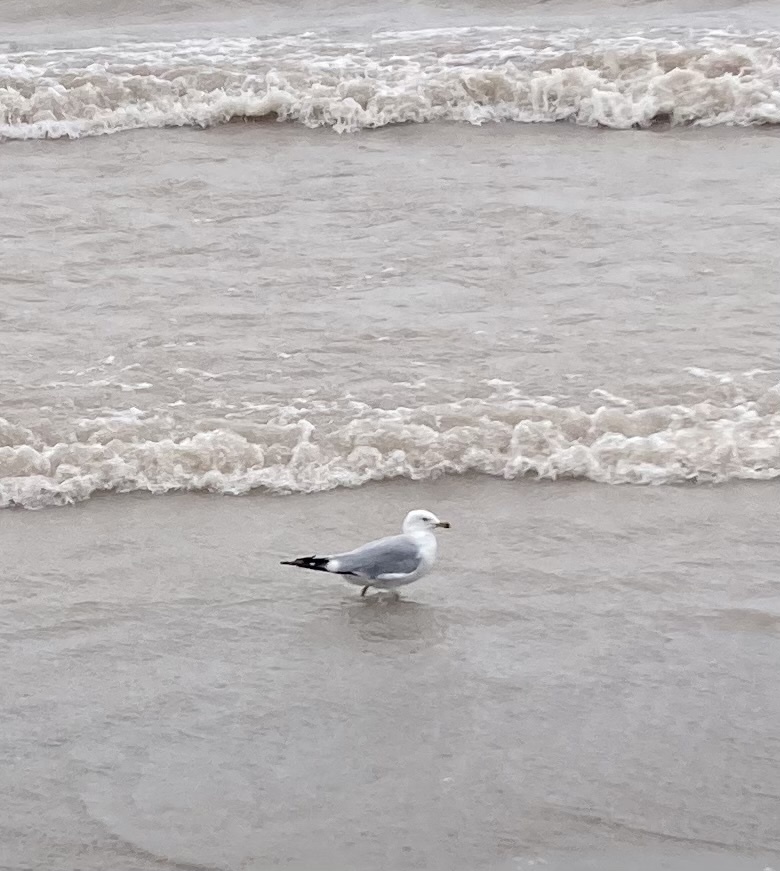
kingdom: Animalia
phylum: Chordata
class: Aves
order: Charadriiformes
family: Laridae
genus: Larus
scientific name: Larus delawarensis
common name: Ring-billed gull
